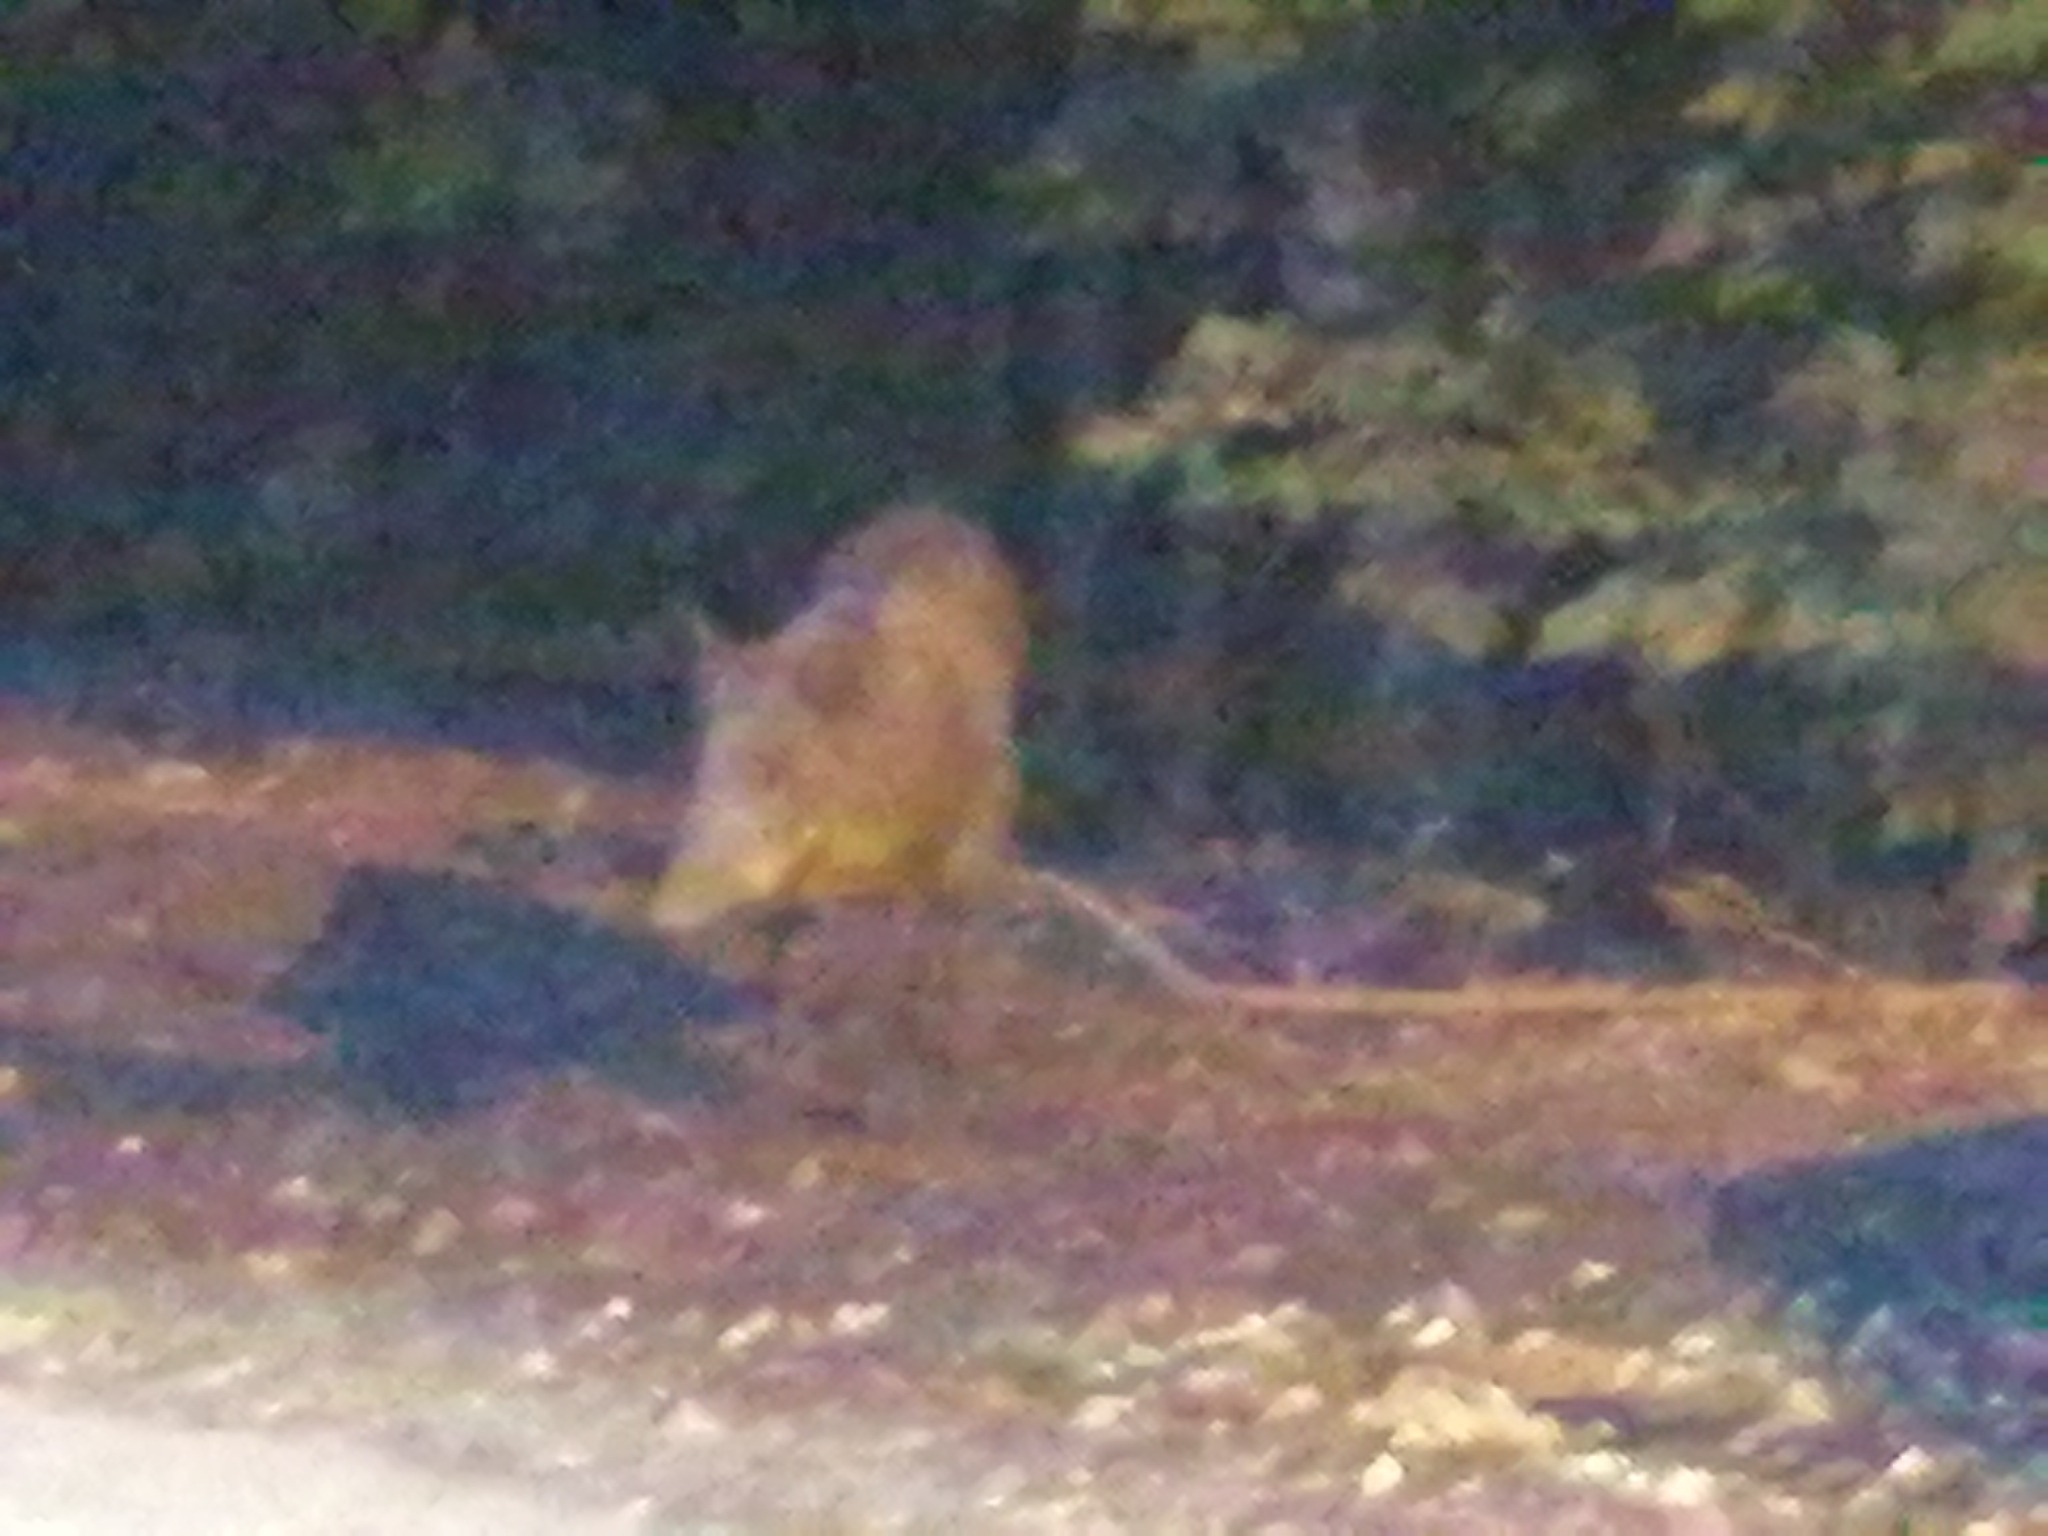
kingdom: Animalia
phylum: Chordata
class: Mammalia
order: Artiodactyla
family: Suidae
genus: Sus
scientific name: Sus scrofa
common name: Wild boar
